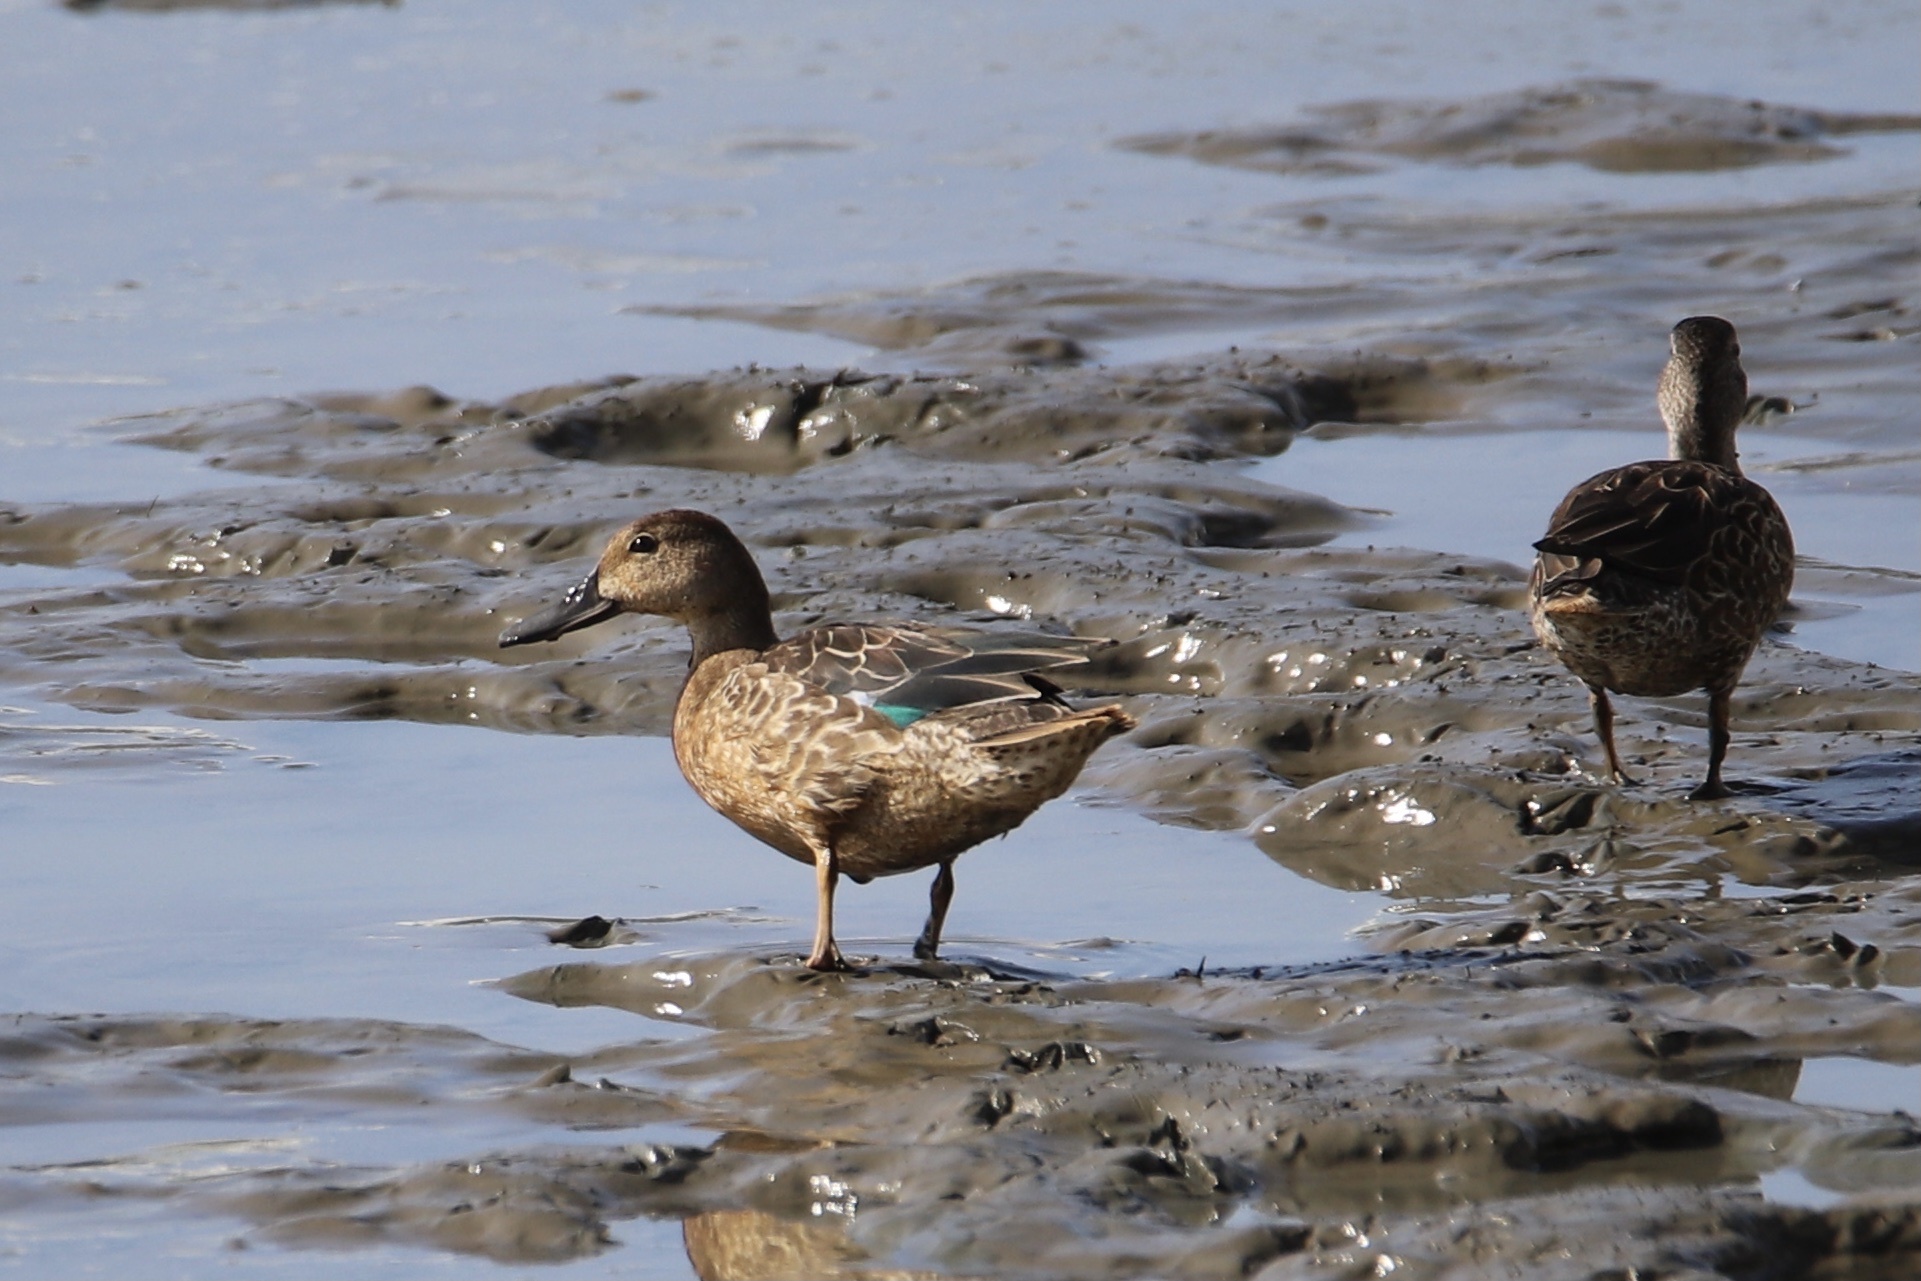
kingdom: Animalia
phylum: Chordata
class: Aves
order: Anseriformes
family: Anatidae
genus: Spatula
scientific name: Spatula discors
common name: Blue-winged teal
